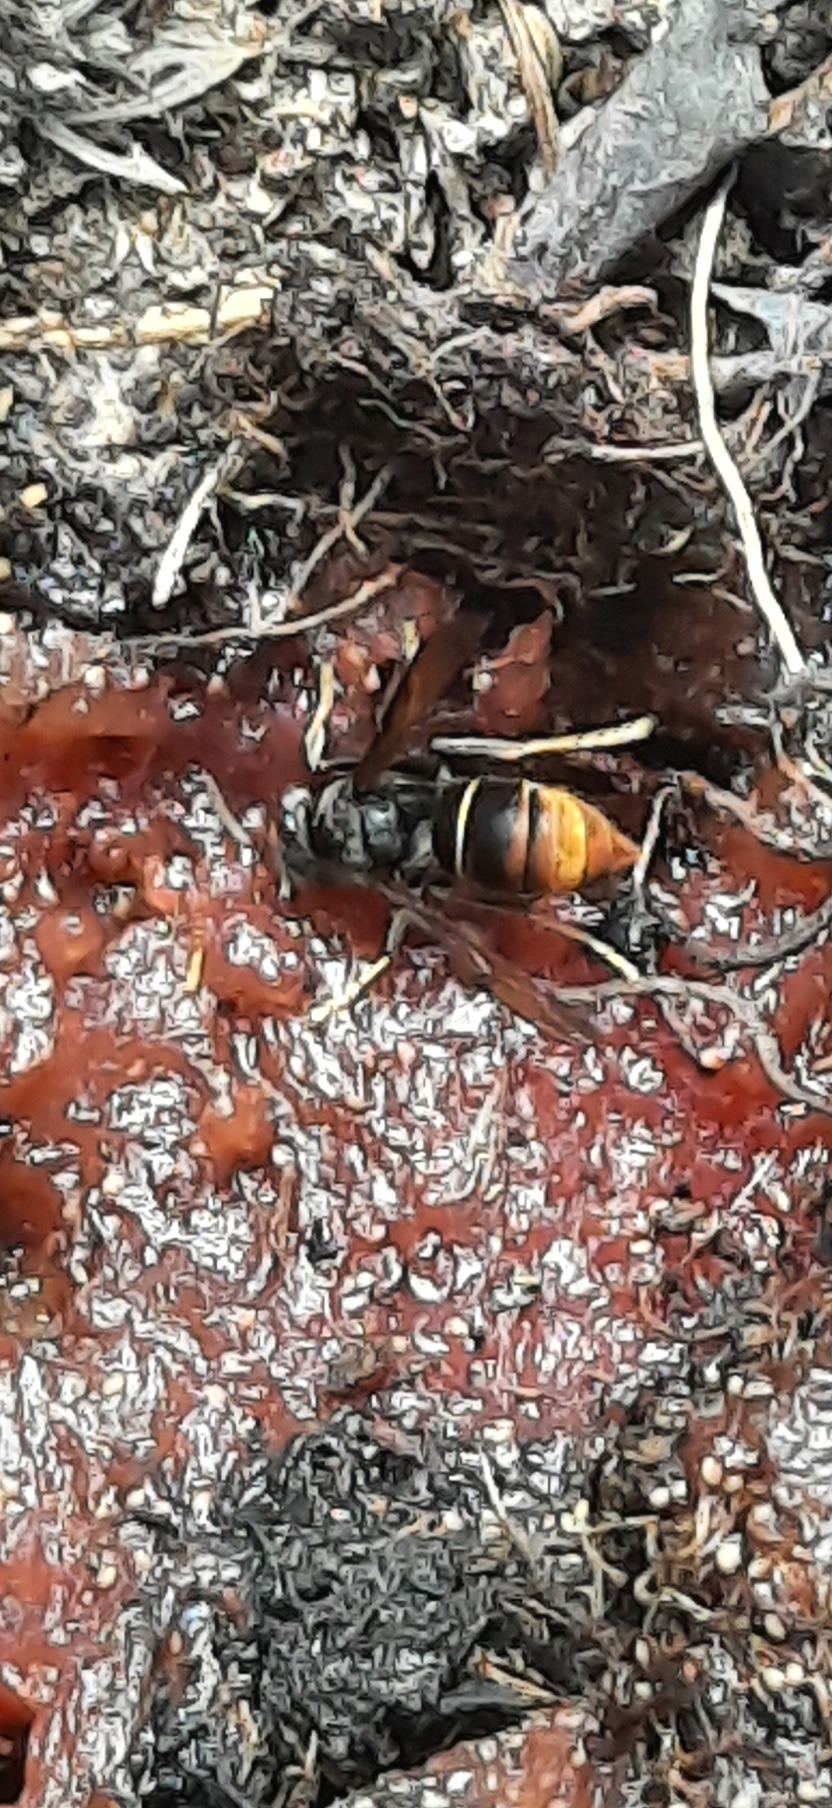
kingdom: Animalia
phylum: Arthropoda
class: Insecta
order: Hymenoptera
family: Vespidae
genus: Vespa
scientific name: Vespa velutina
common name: Asian hornet
